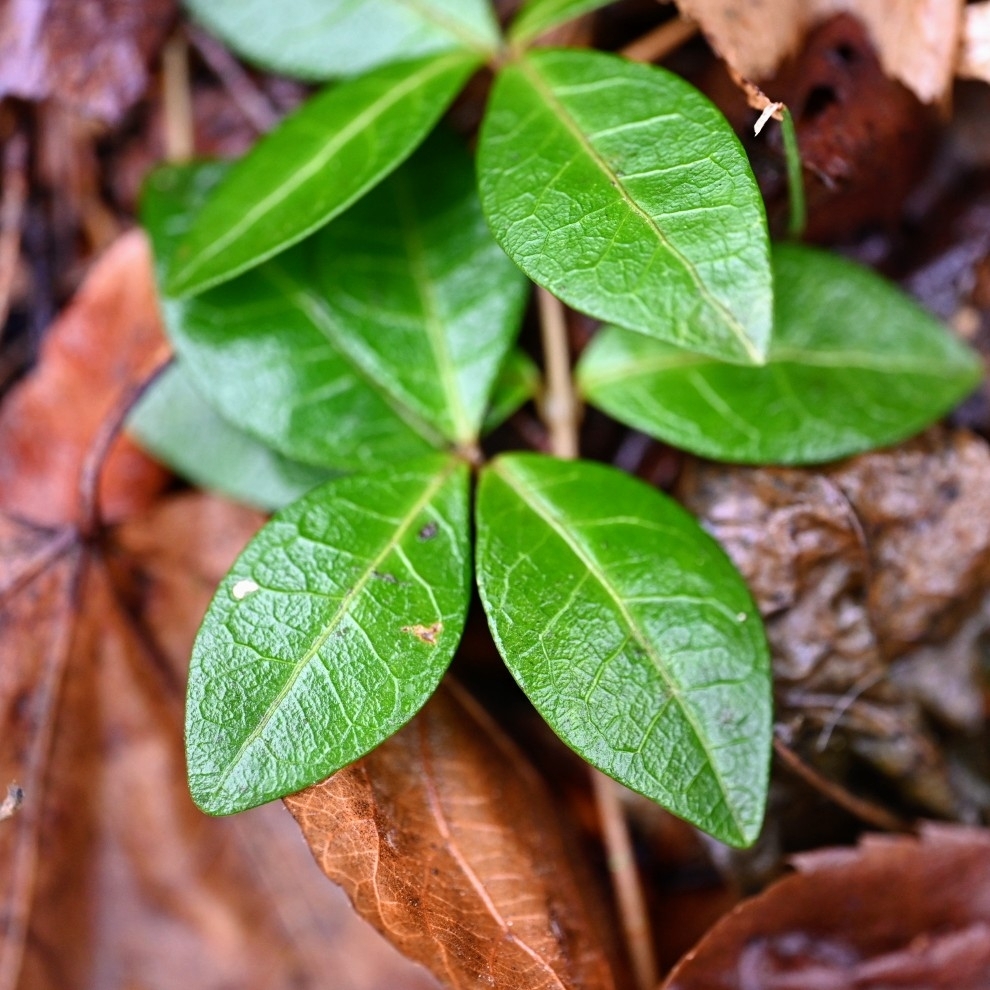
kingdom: Plantae
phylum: Tracheophyta
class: Magnoliopsida
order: Gentianales
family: Apocynaceae
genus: Vinca
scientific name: Vinca minor
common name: Lesser periwinkle
